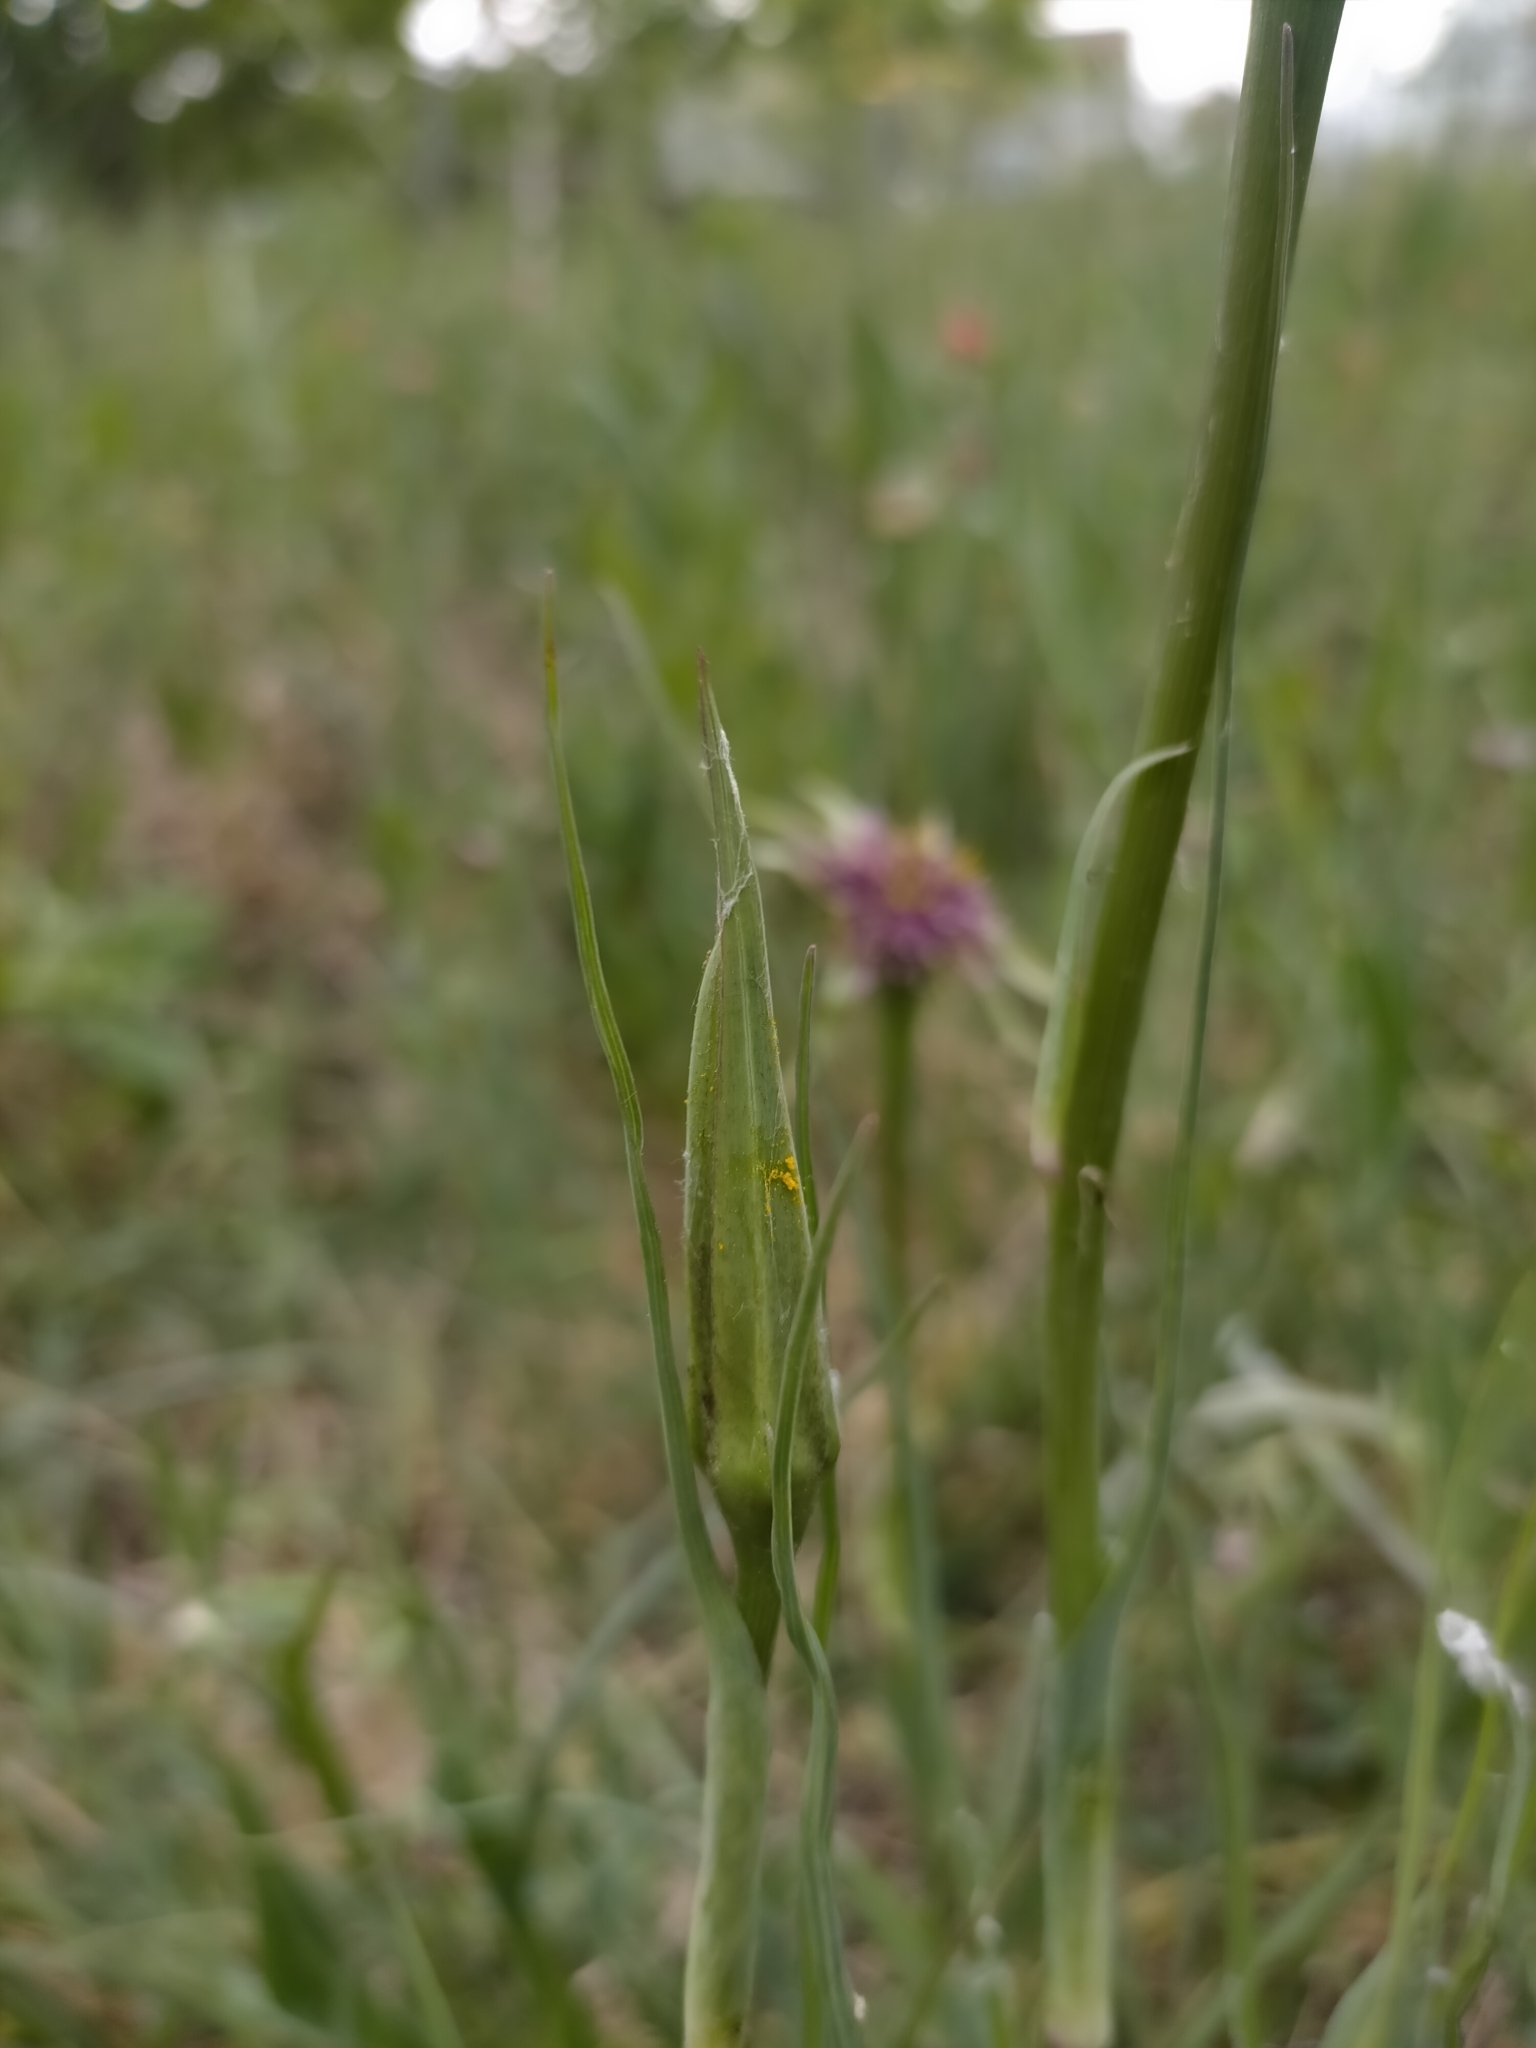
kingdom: Plantae
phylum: Tracheophyta
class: Magnoliopsida
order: Asterales
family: Asteraceae
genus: Tragopogon
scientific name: Tragopogon porrifolius
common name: Salsify
